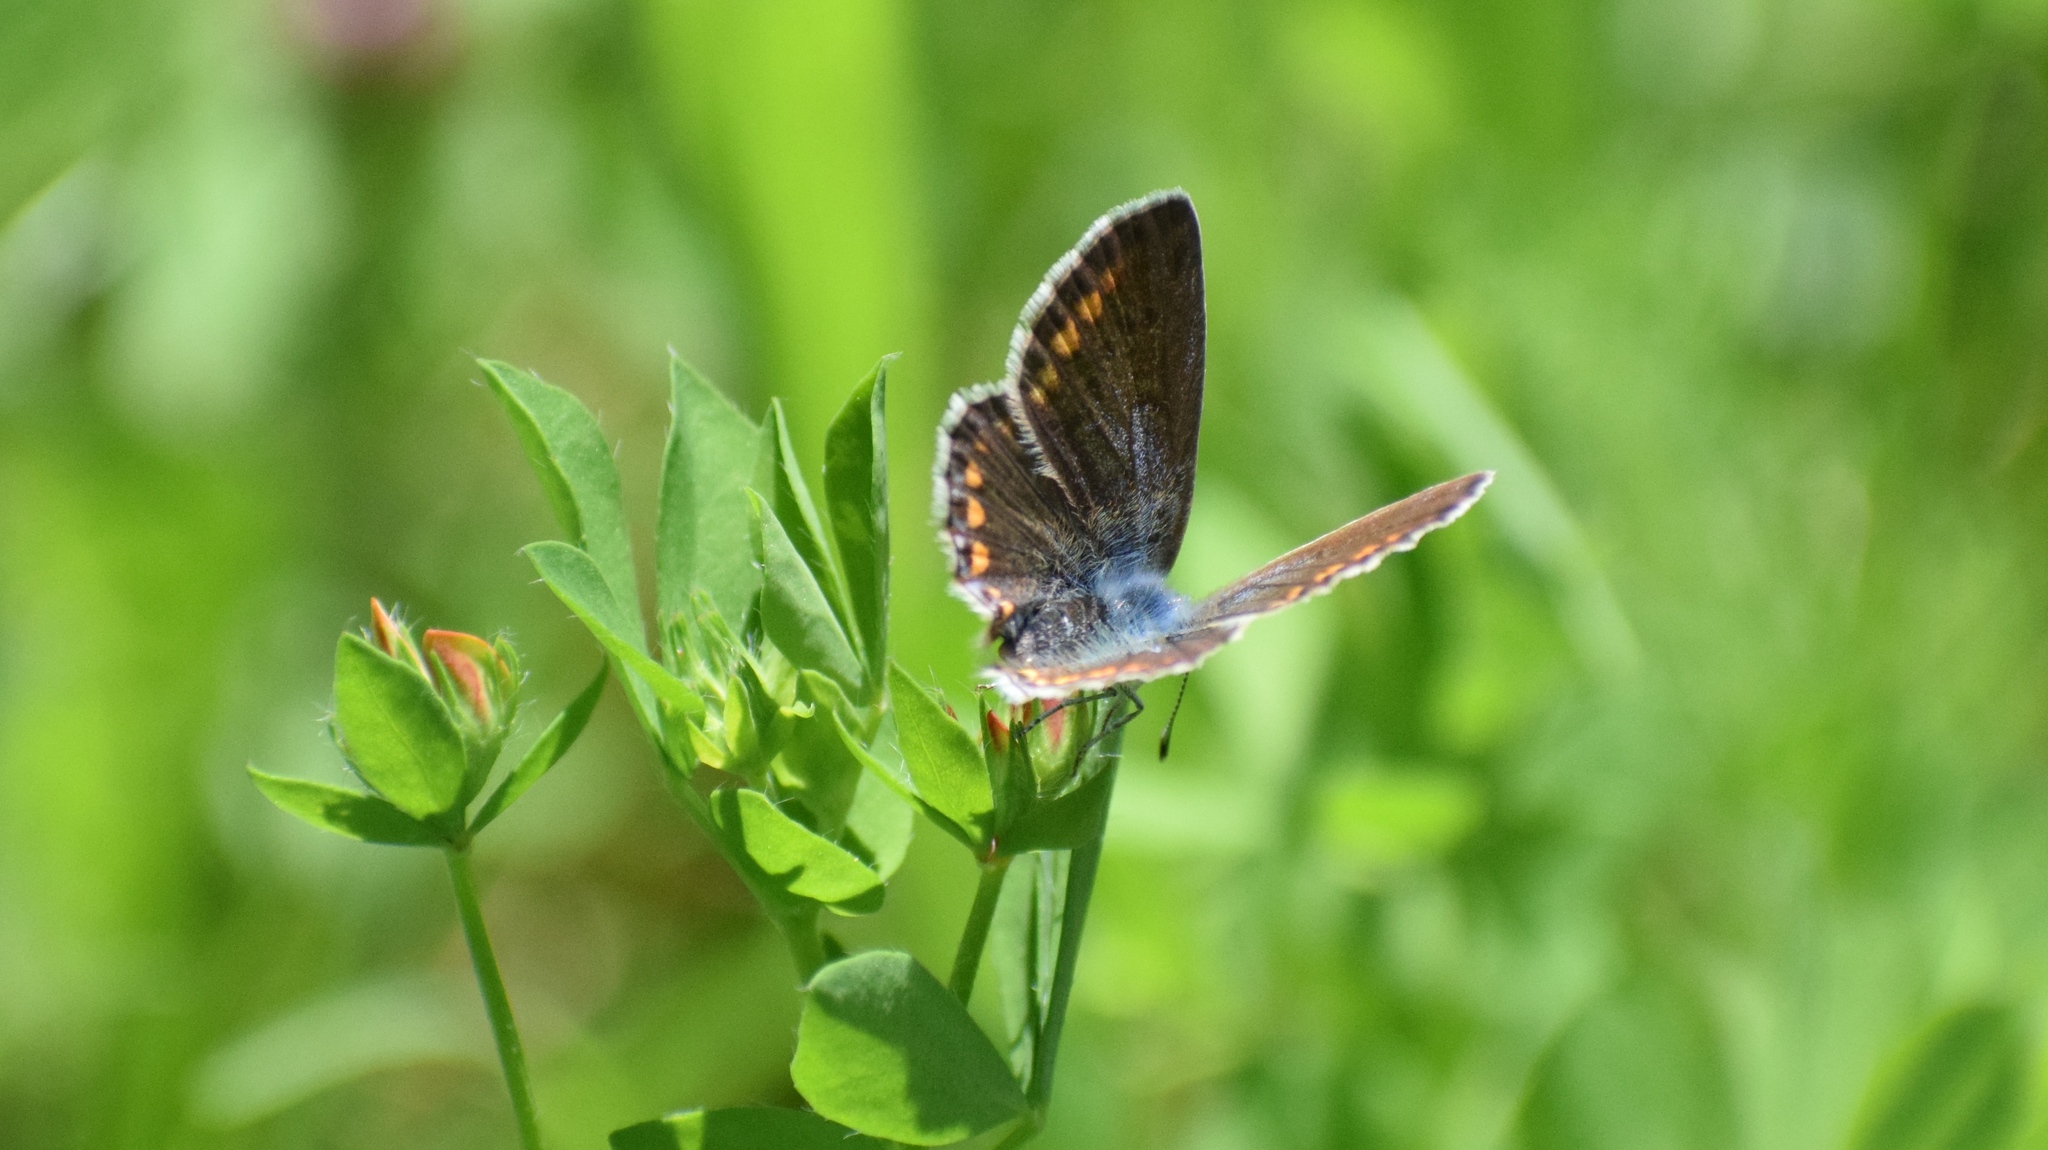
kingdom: Animalia
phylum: Arthropoda
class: Insecta
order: Lepidoptera
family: Lycaenidae
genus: Polyommatus
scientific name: Polyommatus icarus
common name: Common blue
